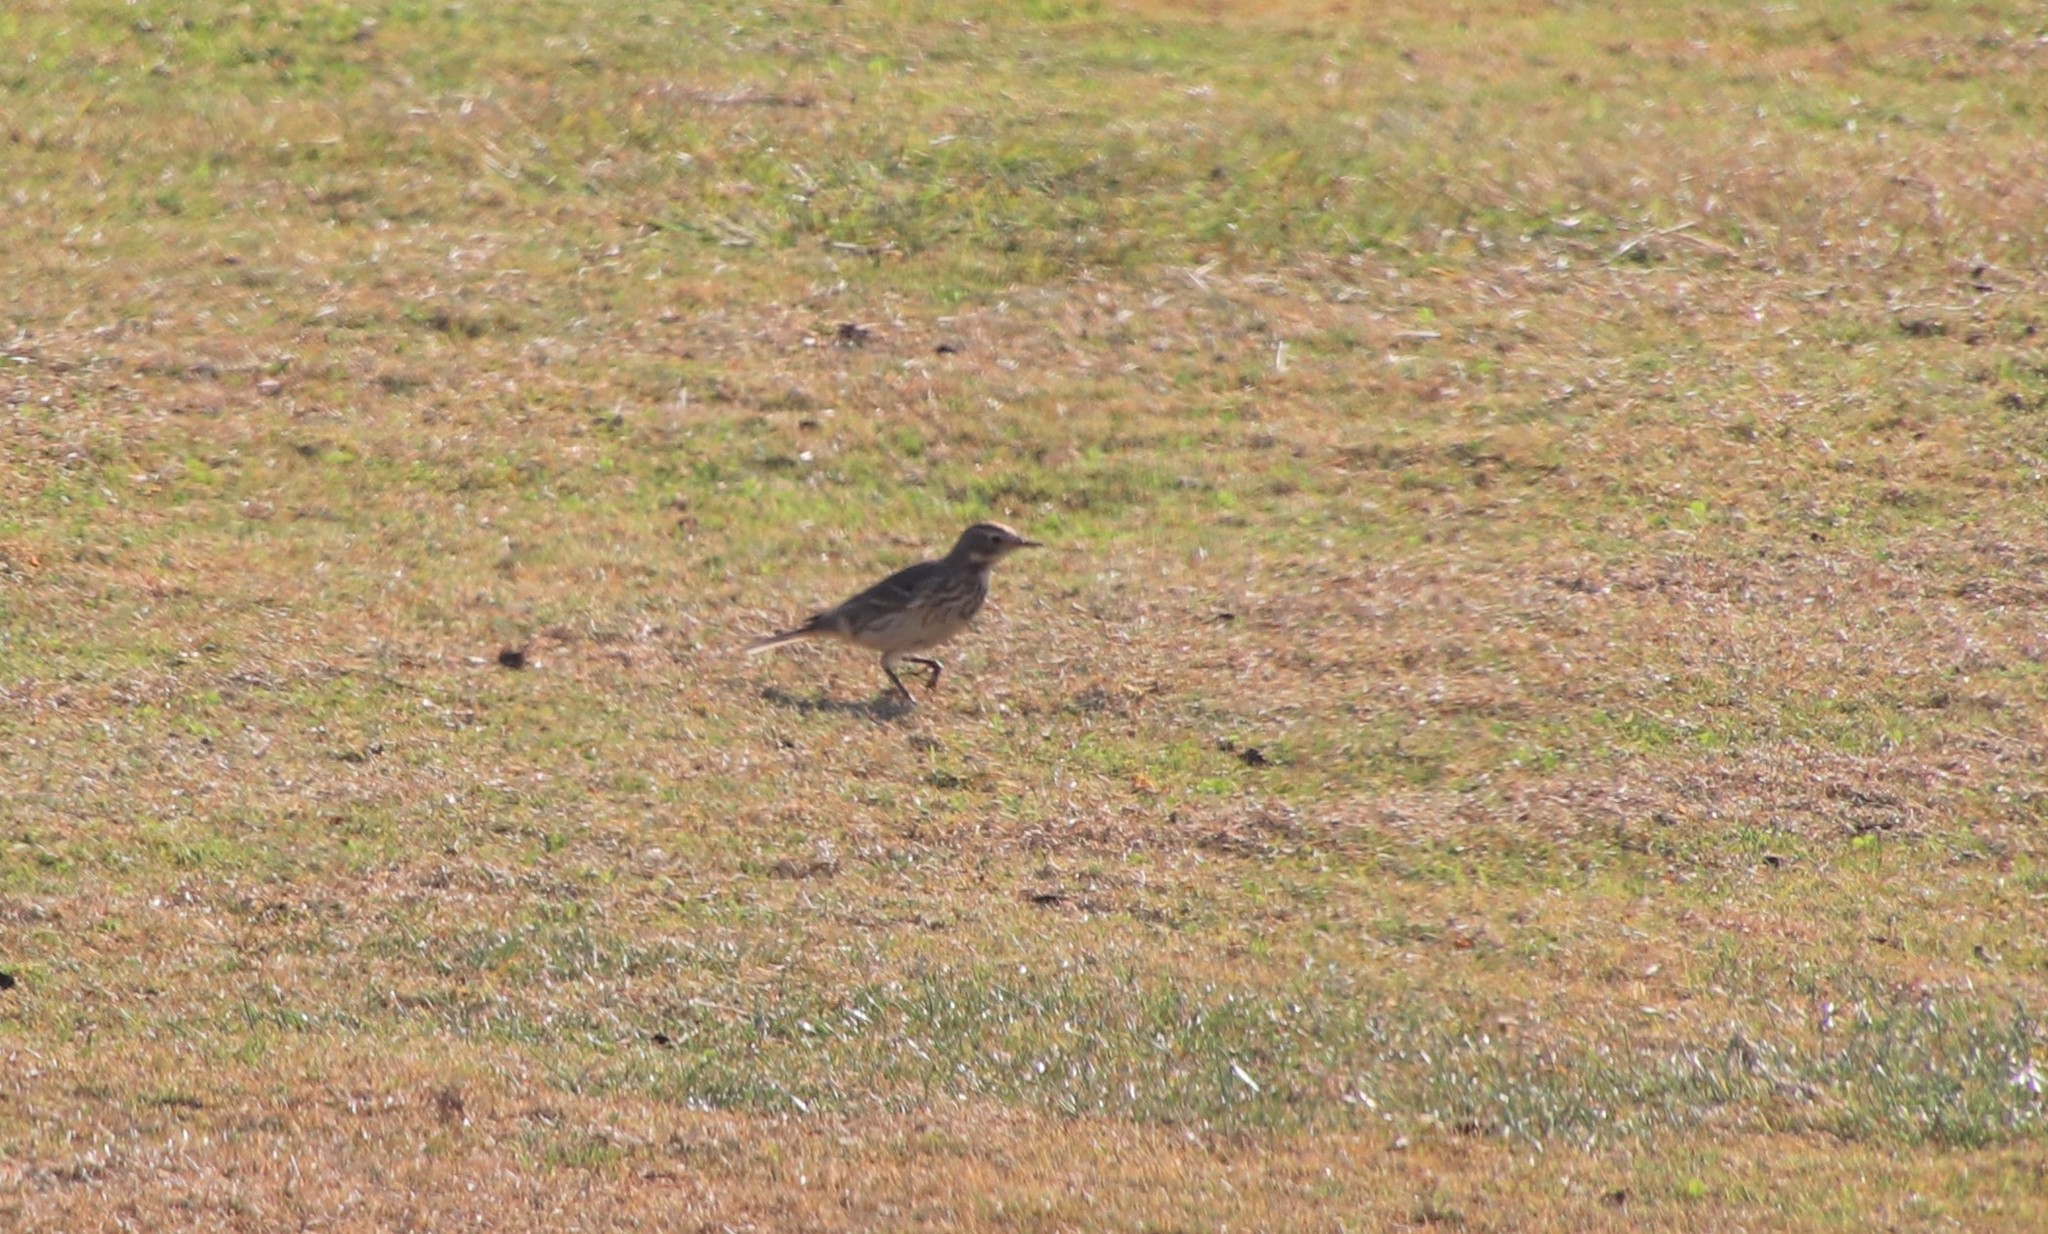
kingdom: Animalia
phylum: Chordata
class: Aves
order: Passeriformes
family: Motacillidae
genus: Anthus
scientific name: Anthus rubescens
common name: Buff-bellied pipit
